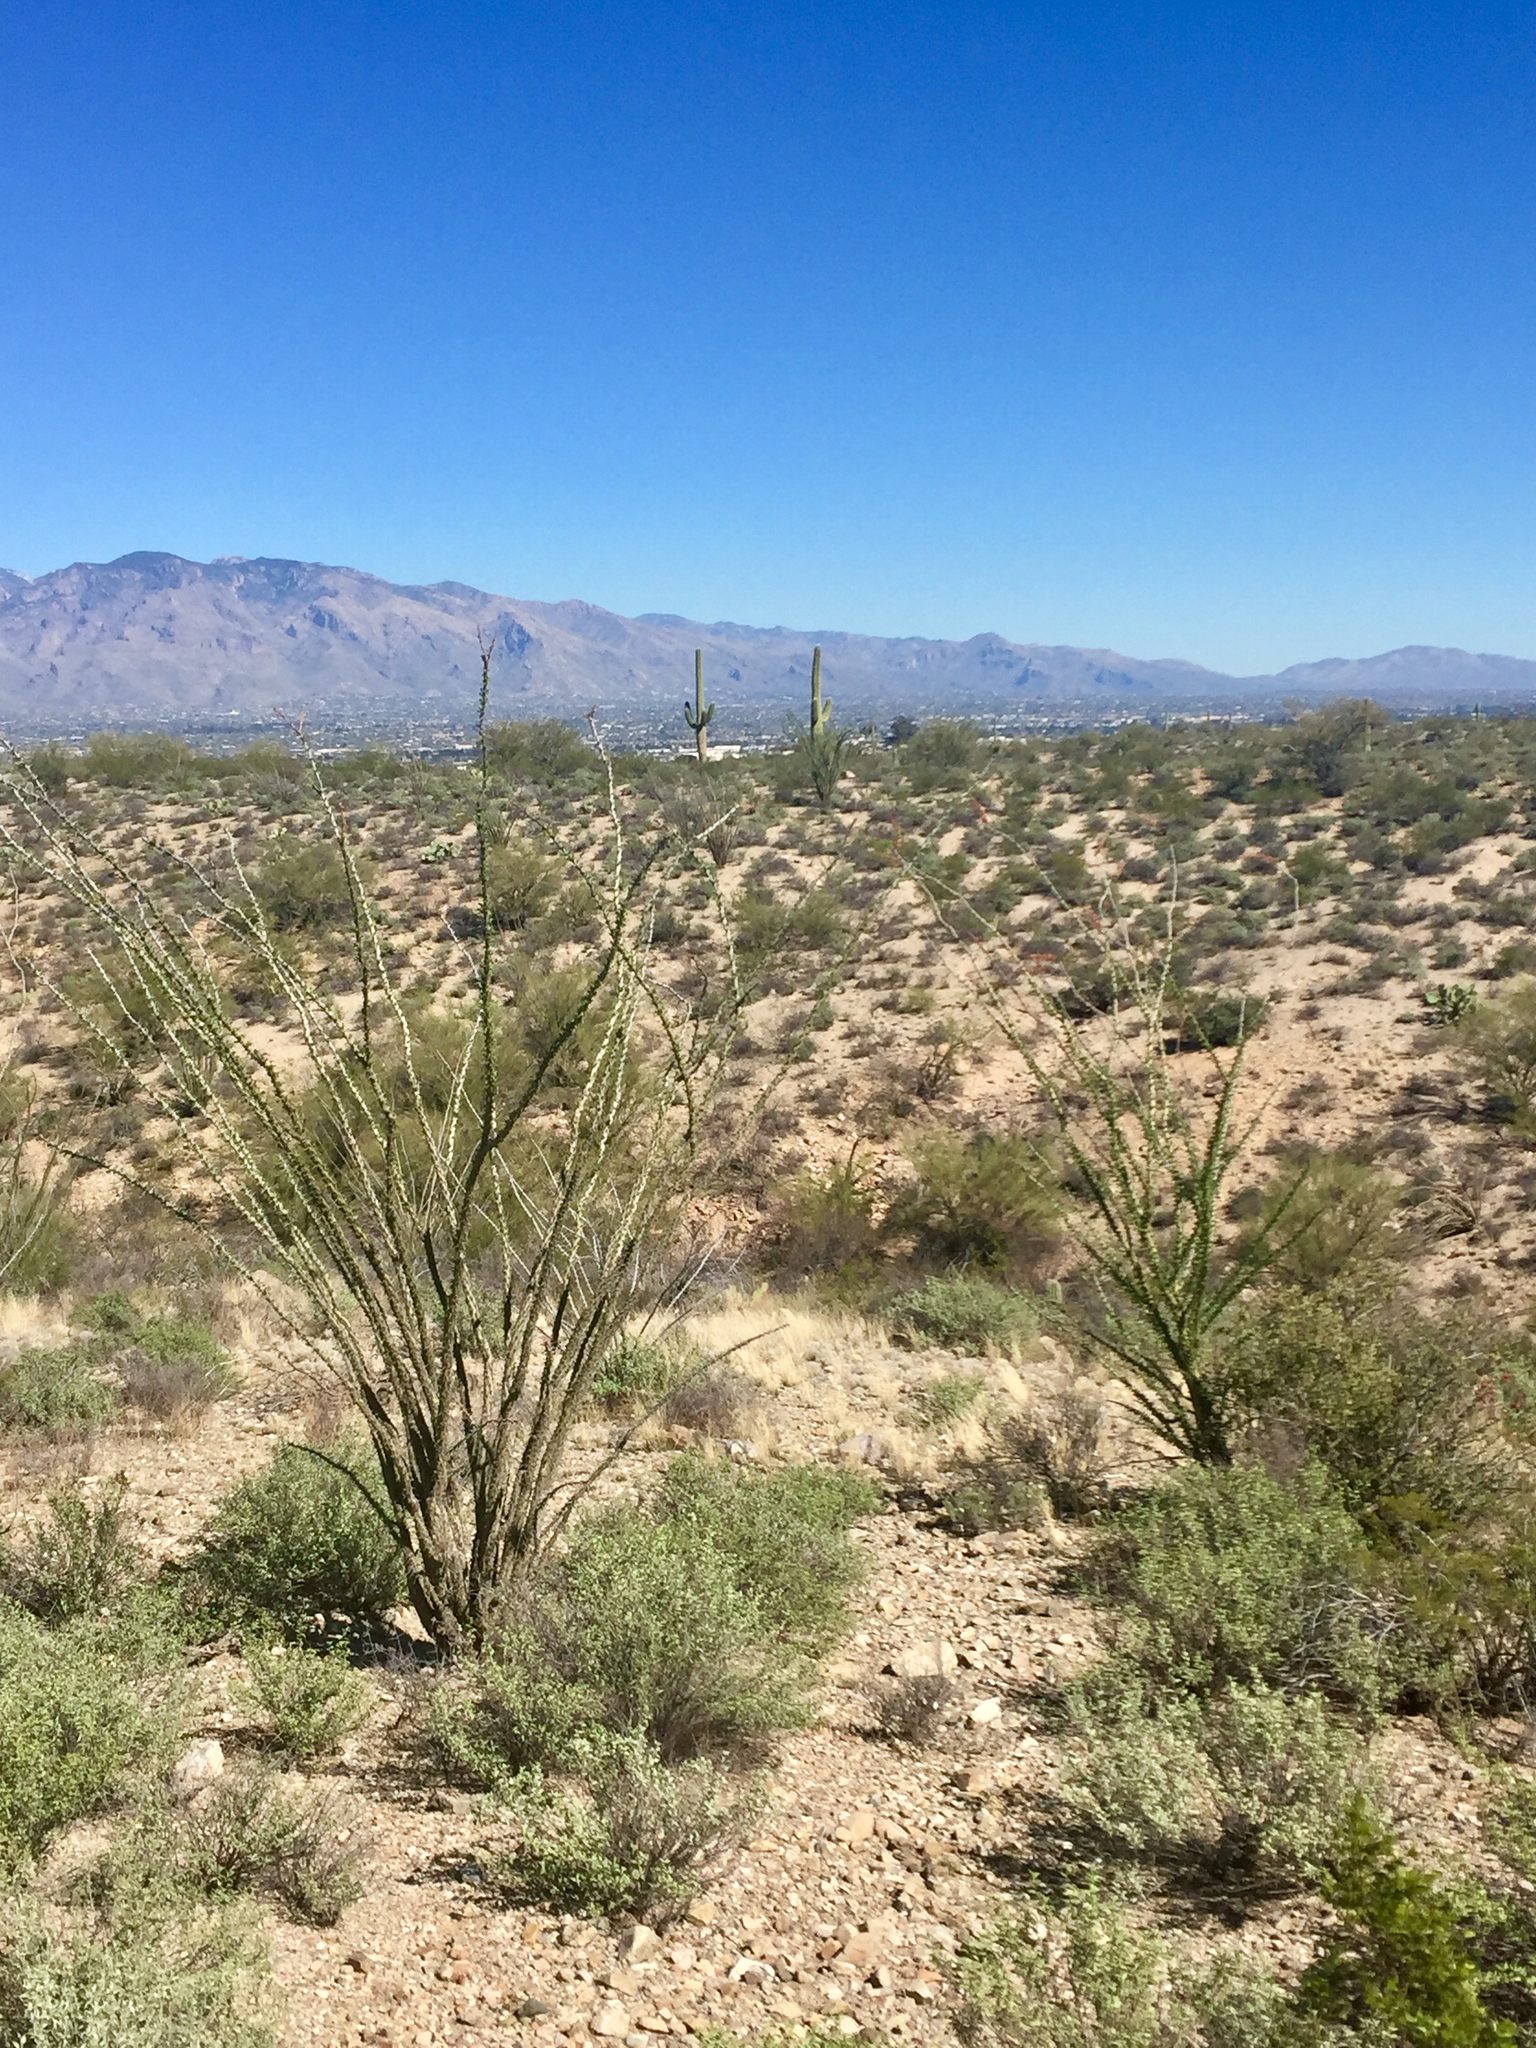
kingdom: Plantae
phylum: Tracheophyta
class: Magnoliopsida
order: Ericales
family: Fouquieriaceae
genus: Fouquieria
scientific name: Fouquieria splendens
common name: Vine-cactus
